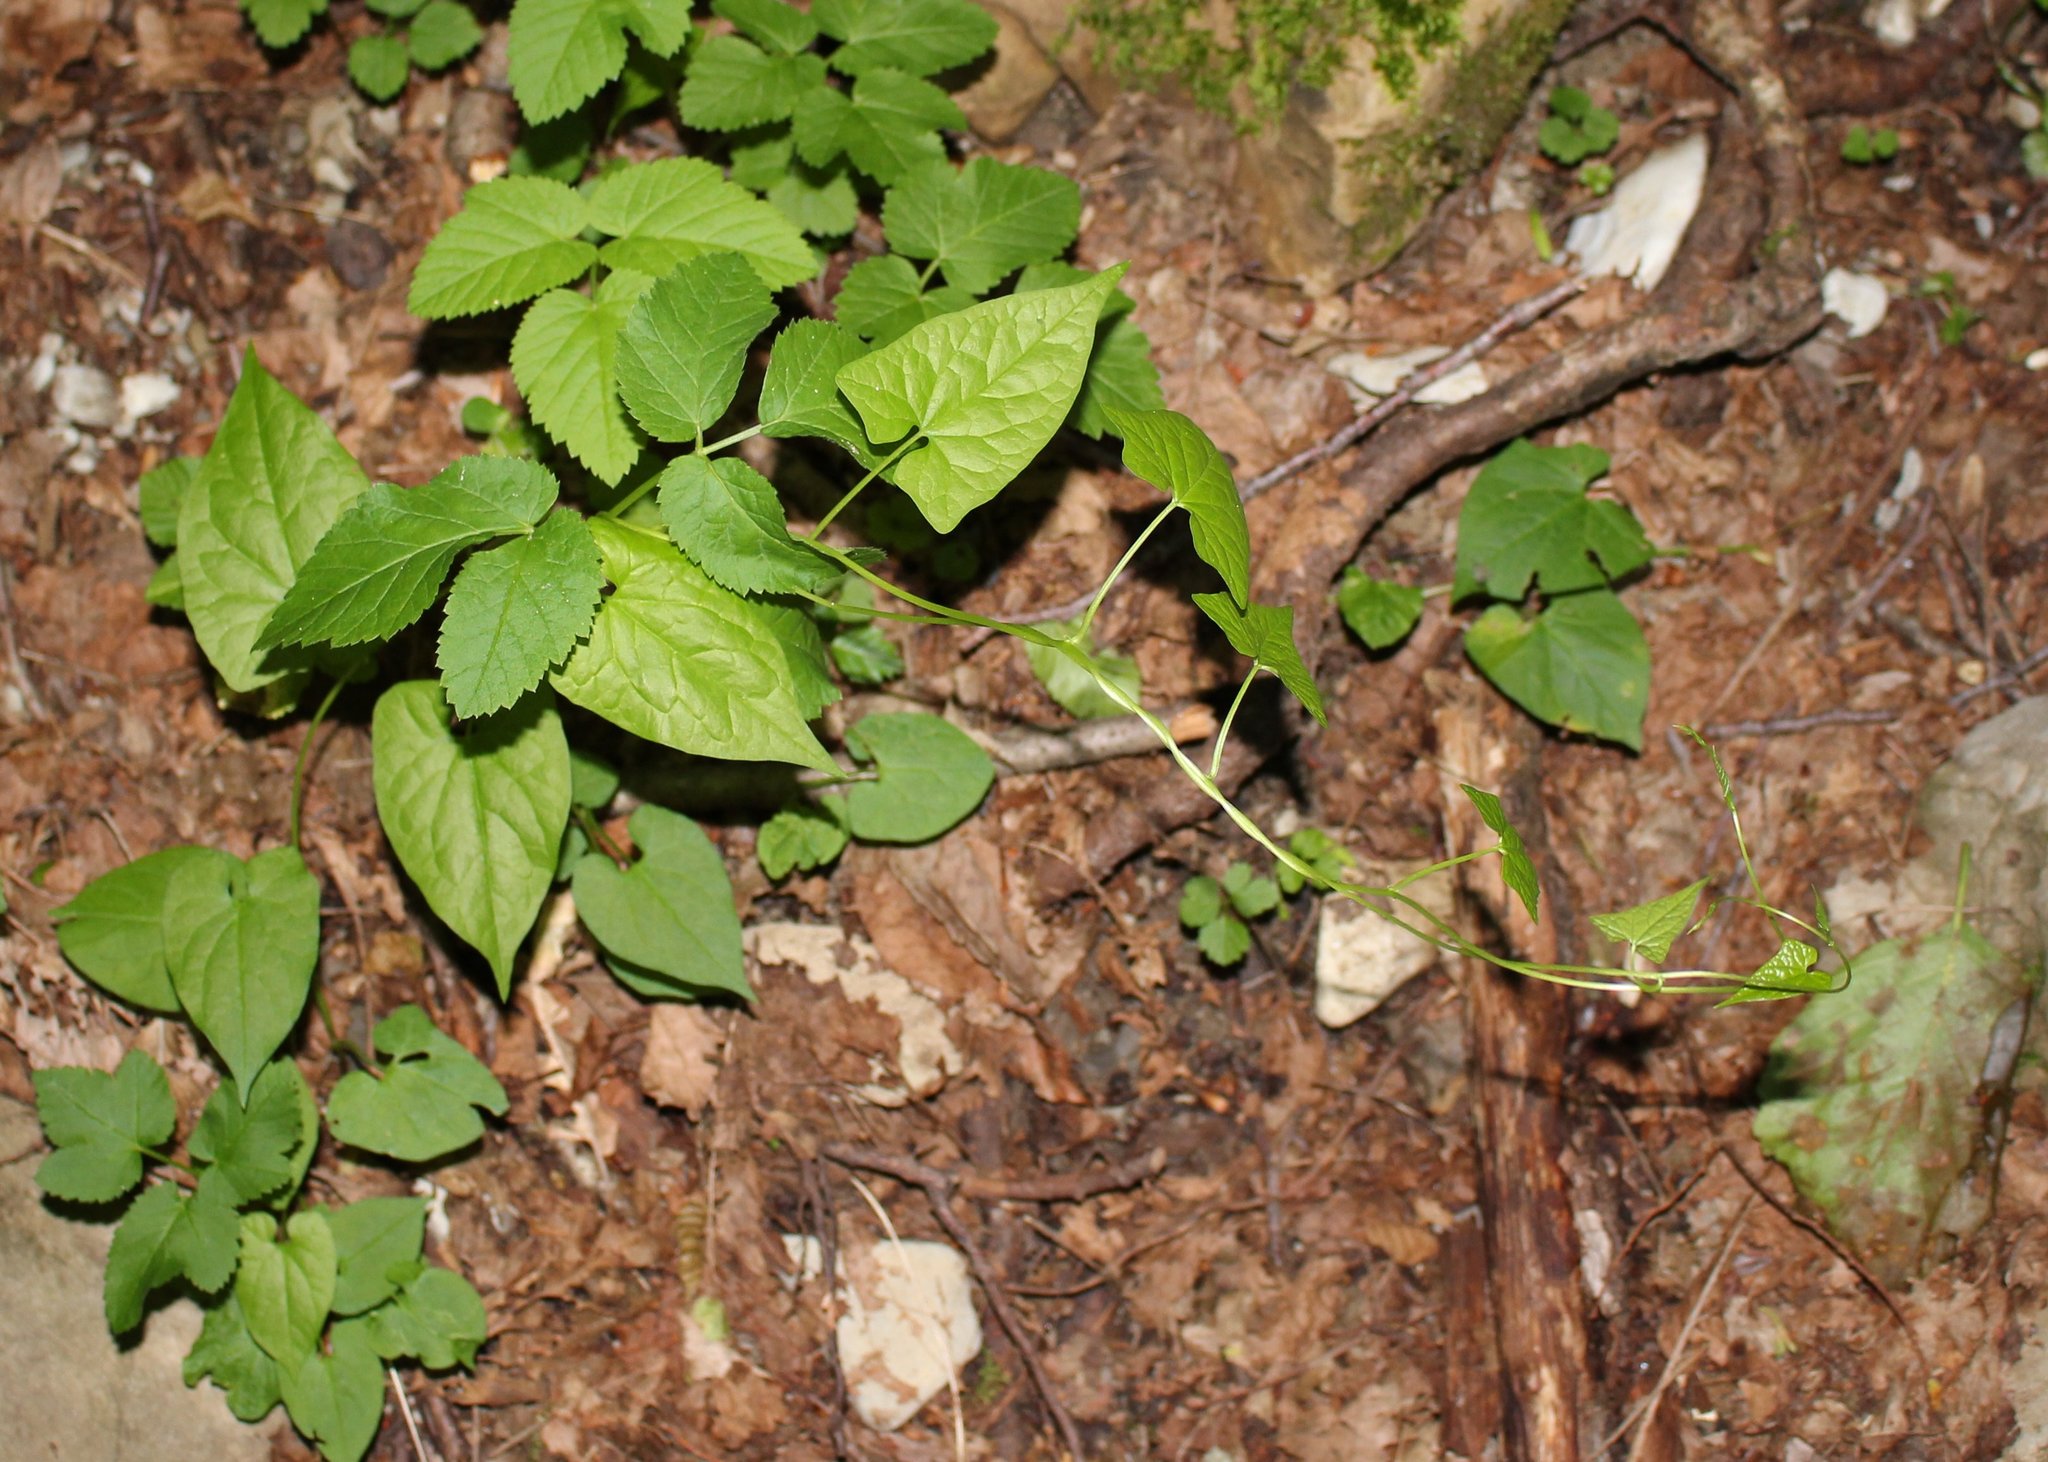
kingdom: Plantae
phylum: Tracheophyta
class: Magnoliopsida
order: Solanales
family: Convolvulaceae
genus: Calystegia
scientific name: Calystegia silvatica
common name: Large bindweed
